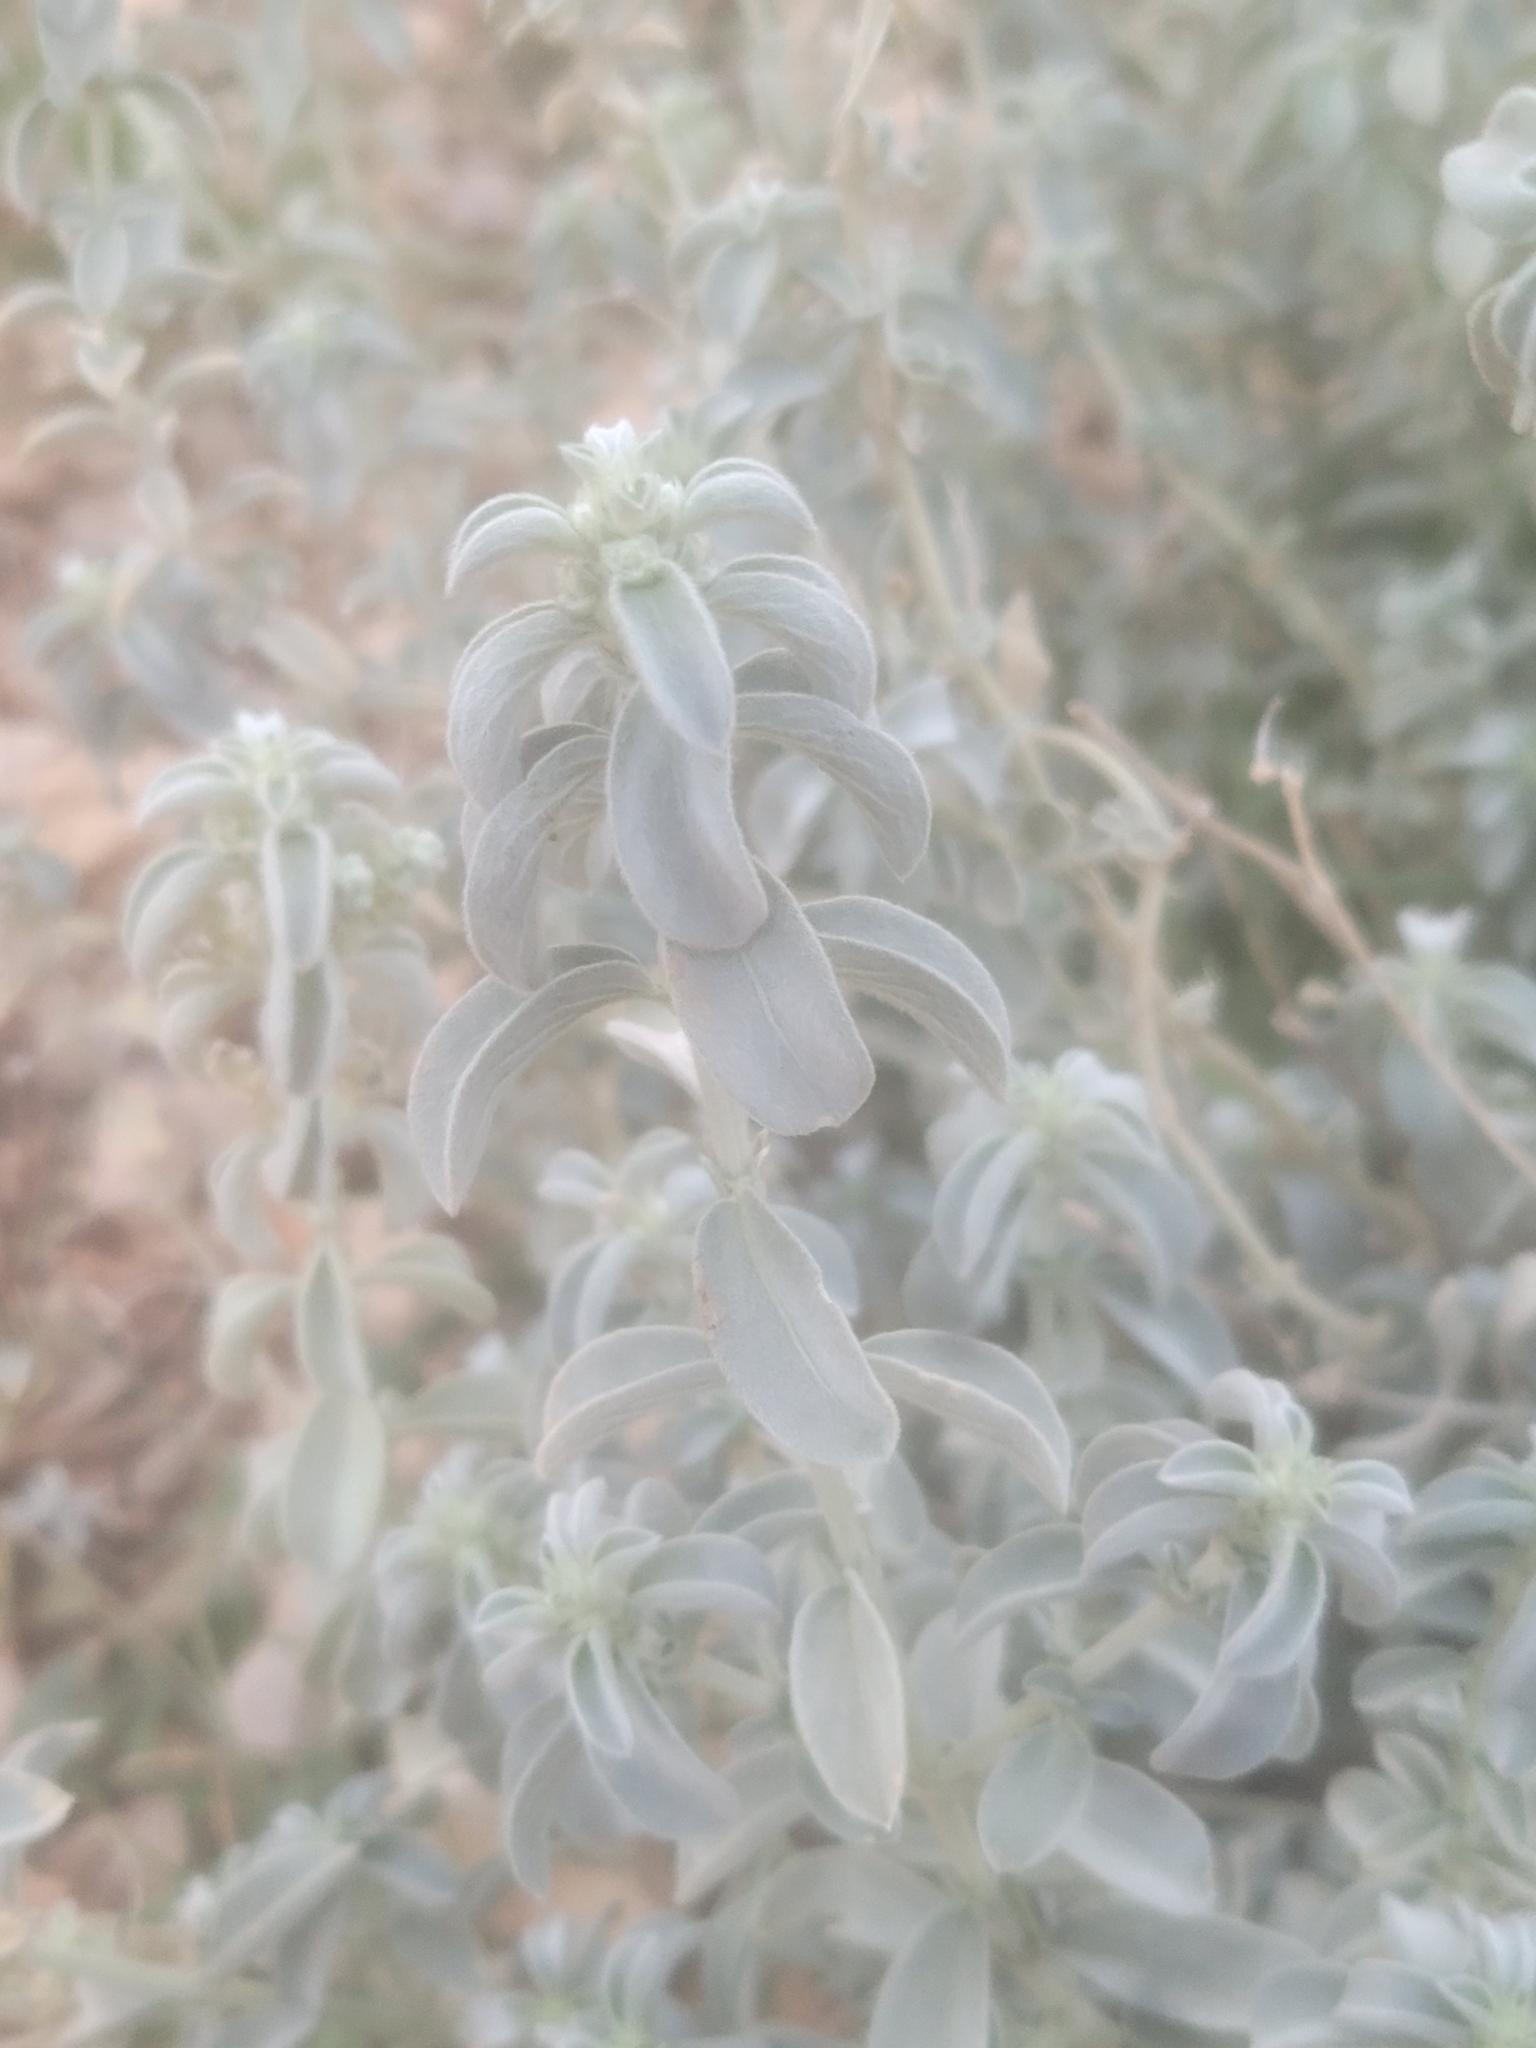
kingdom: Plantae
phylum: Tracheophyta
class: Magnoliopsida
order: Malpighiales
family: Euphorbiaceae
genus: Mercurialis
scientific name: Mercurialis tomentosa
